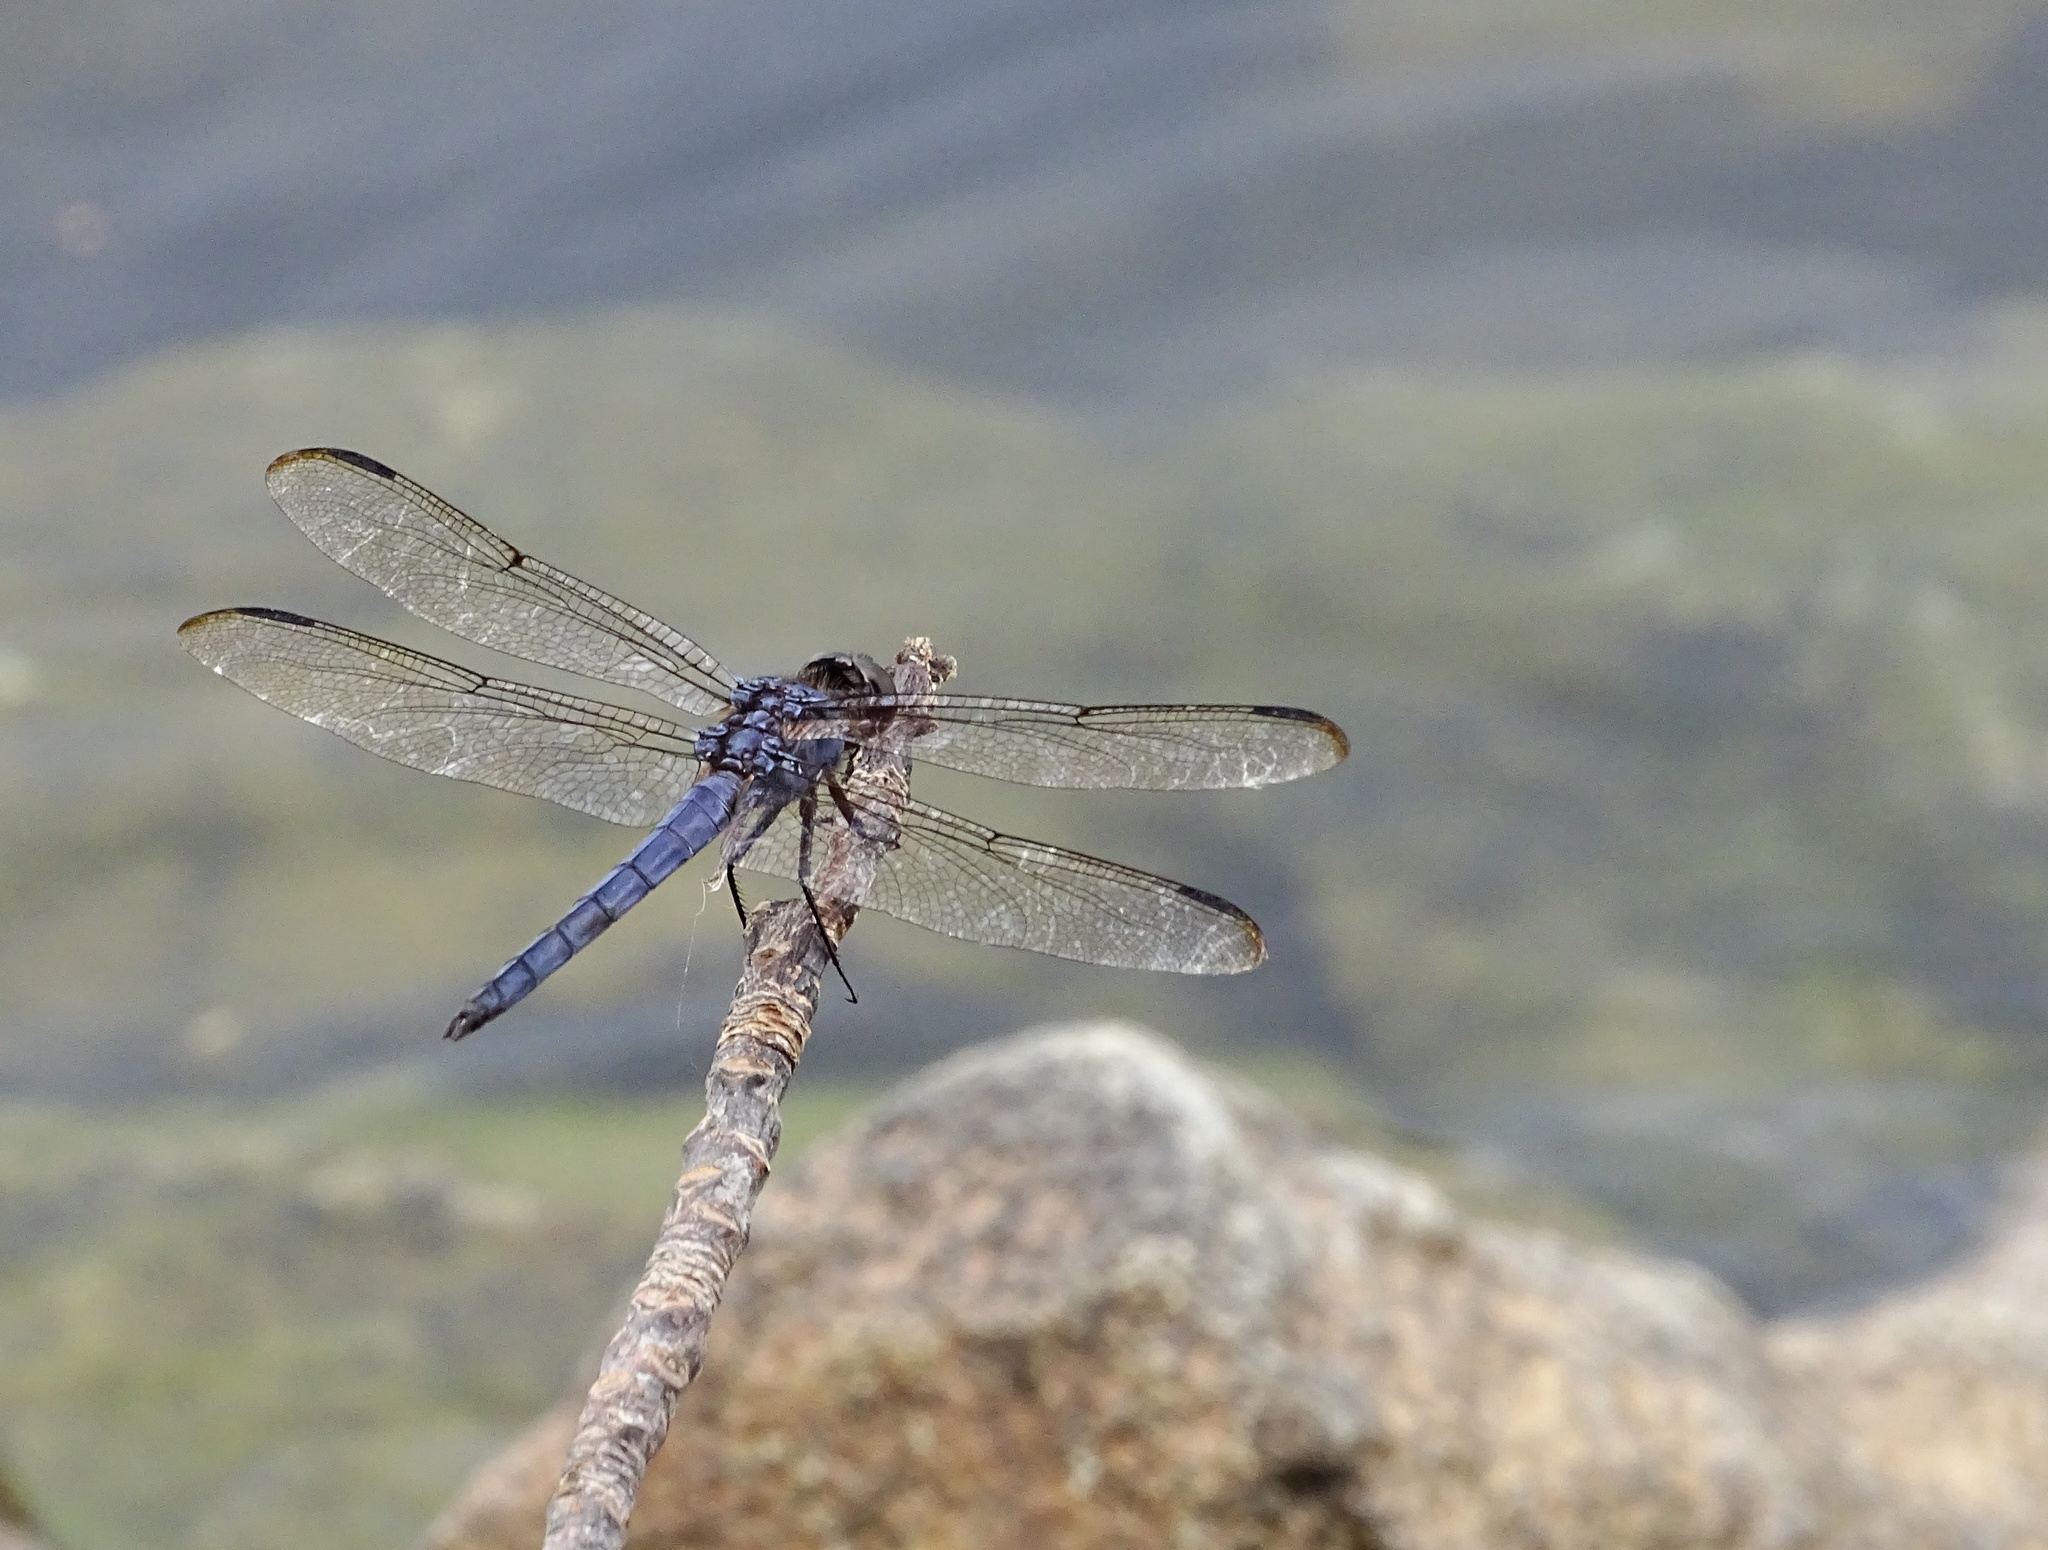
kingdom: Animalia
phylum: Arthropoda
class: Insecta
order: Odonata
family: Libellulidae
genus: Libellula
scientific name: Libellula incesta
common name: Slaty skimmer
